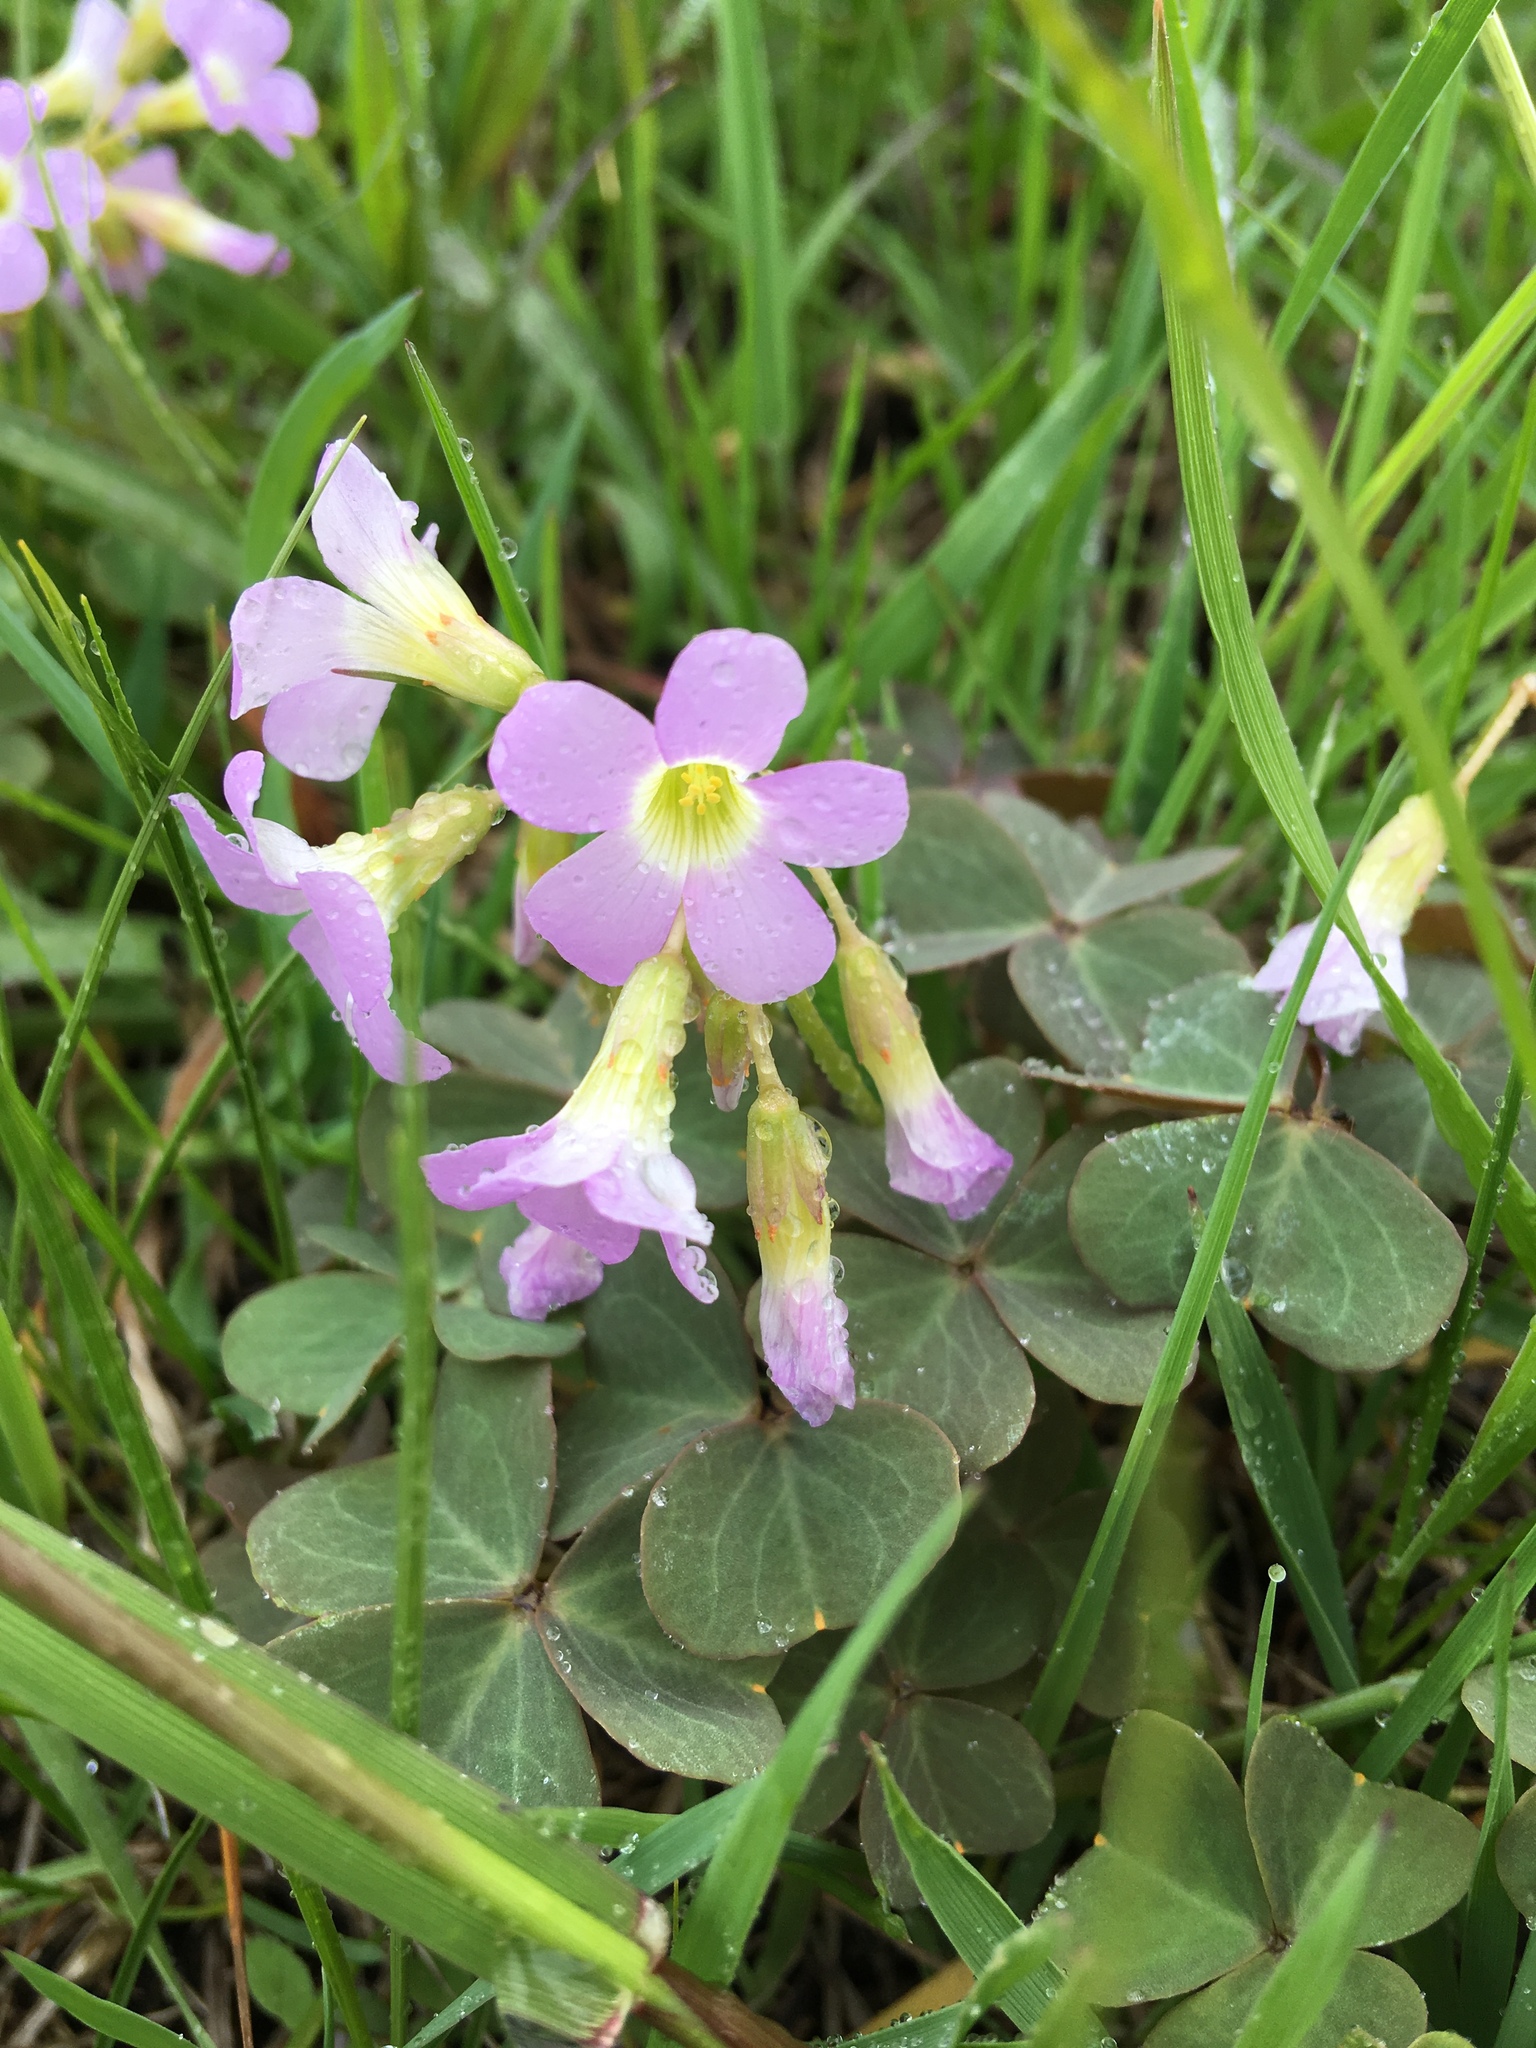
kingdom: Plantae
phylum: Tracheophyta
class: Magnoliopsida
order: Oxalidales
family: Oxalidaceae
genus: Oxalis
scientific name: Oxalis violacea
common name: Violet wood-sorrel
